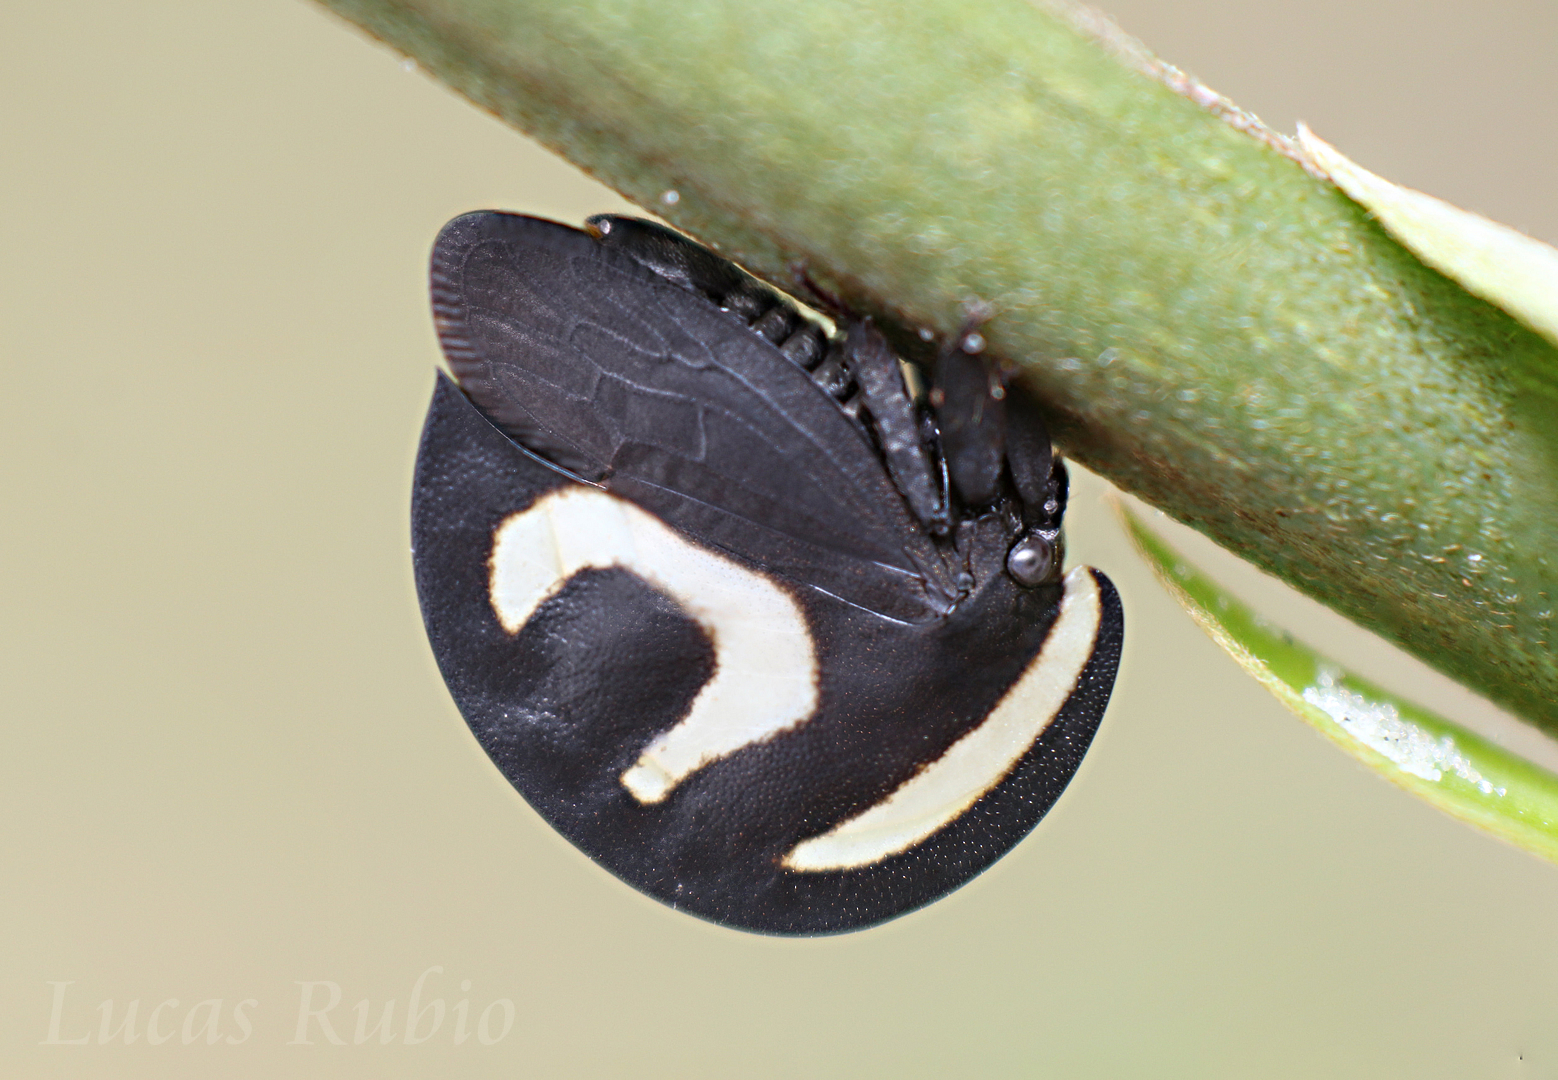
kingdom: Animalia
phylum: Arthropoda
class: Insecta
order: Hemiptera
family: Membracidae
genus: Membracis
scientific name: Membracis foliatafasciata
